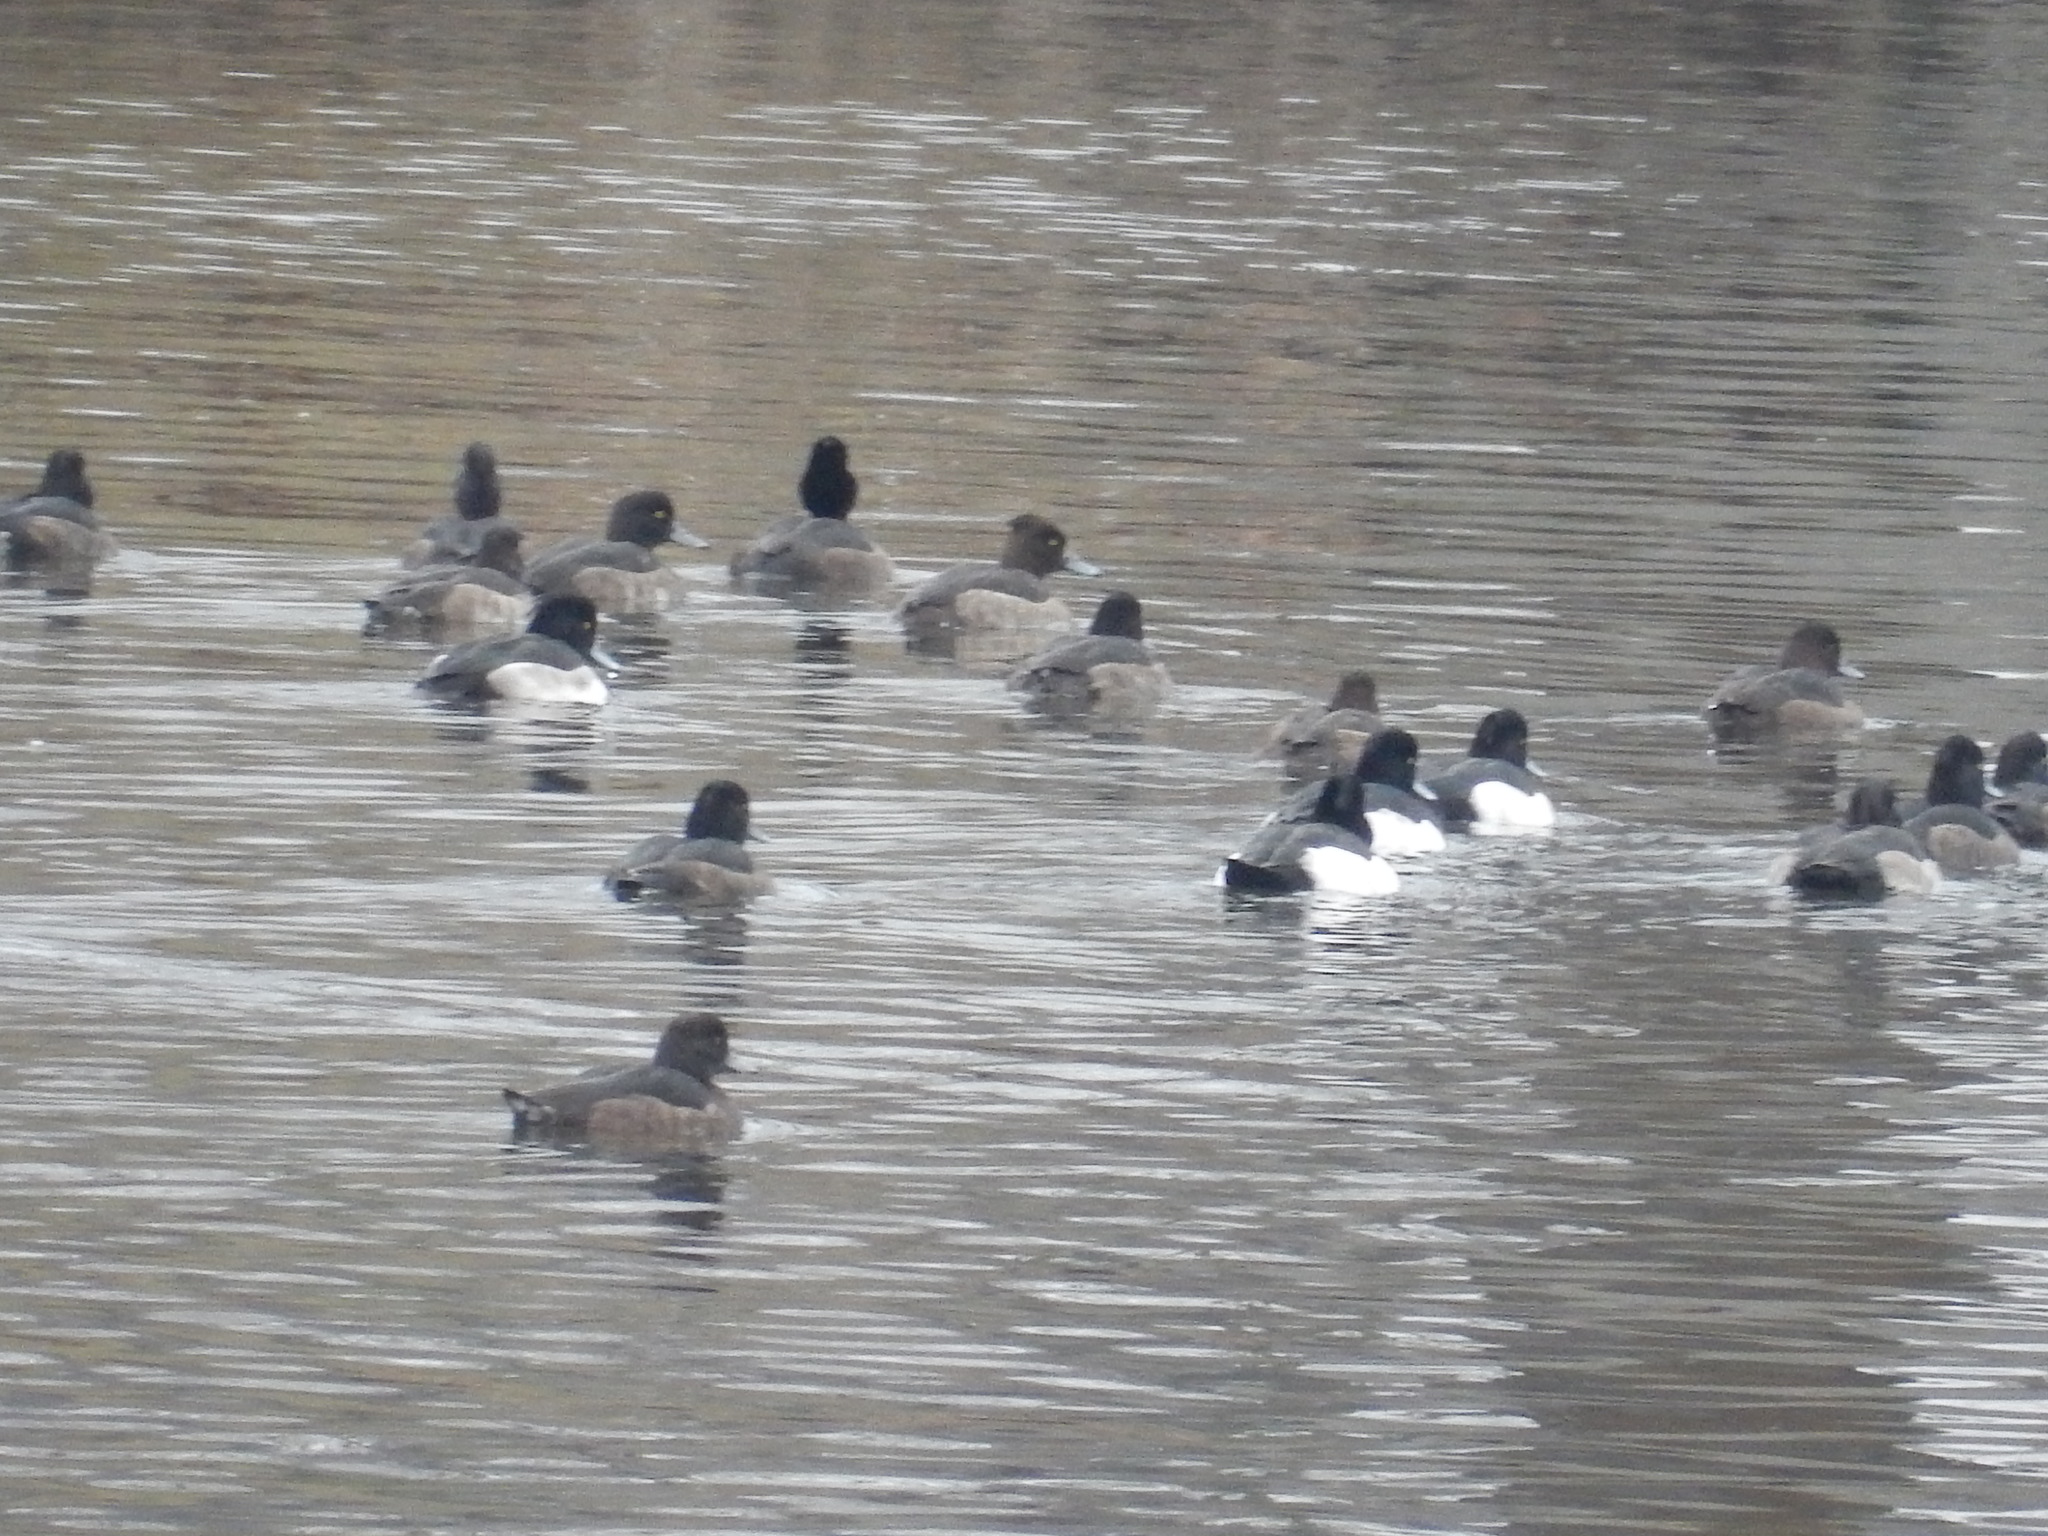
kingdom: Animalia
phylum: Chordata
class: Aves
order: Anseriformes
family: Anatidae
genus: Aythya
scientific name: Aythya fuligula
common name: Tufted duck
